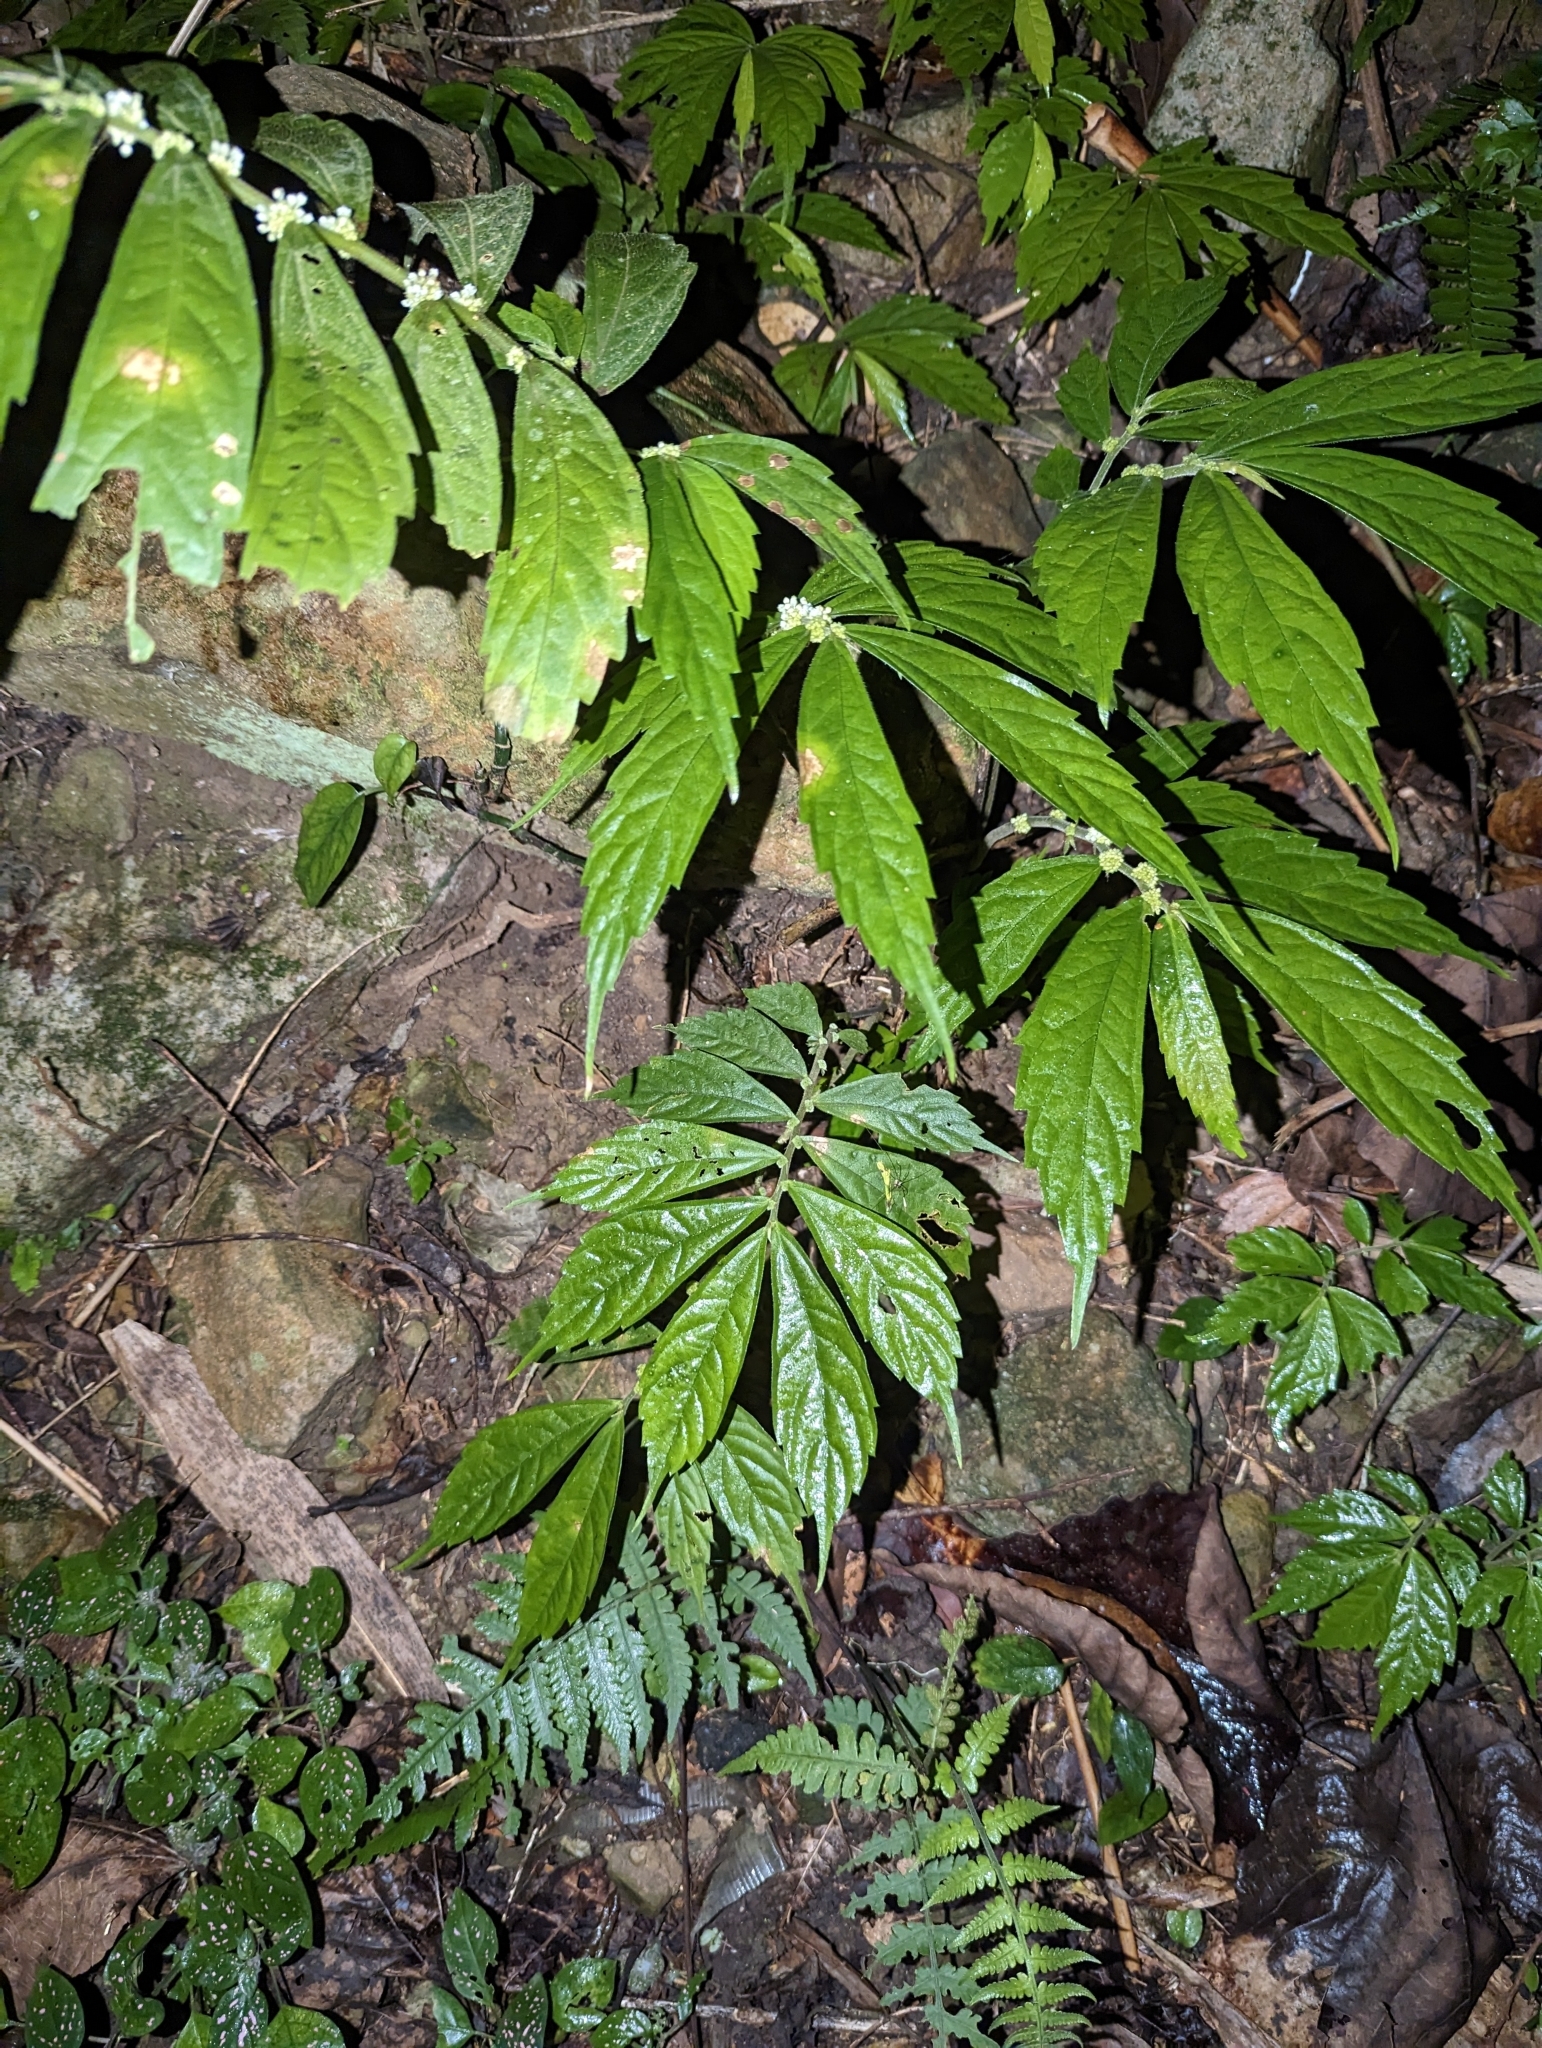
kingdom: Plantae
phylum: Tracheophyta
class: Magnoliopsida
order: Rosales
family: Urticaceae
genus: Elatostema
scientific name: Elatostema lineolatum
